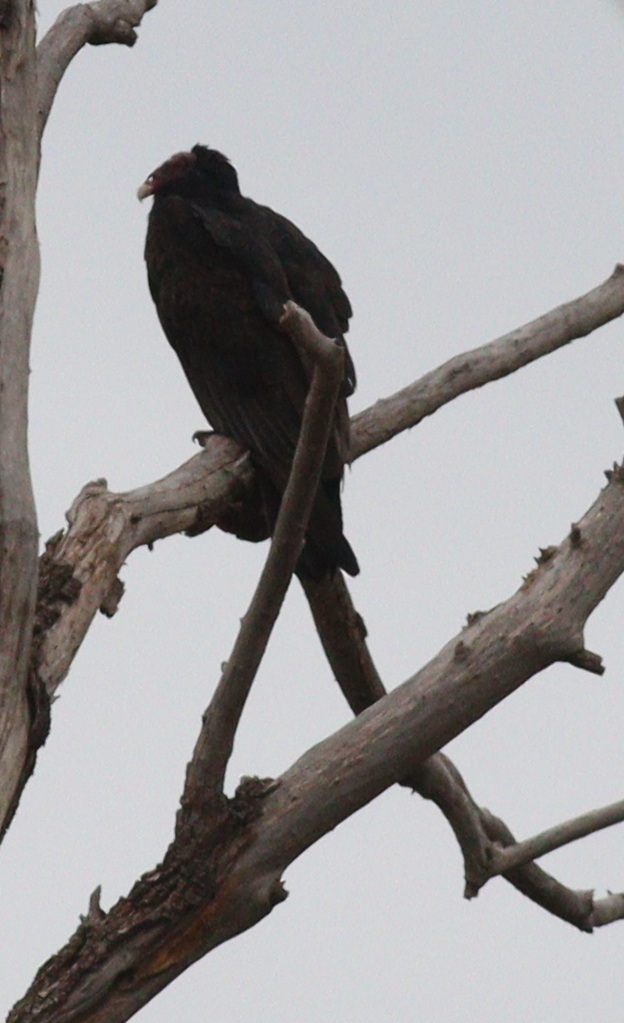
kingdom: Animalia
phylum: Chordata
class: Aves
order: Accipitriformes
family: Cathartidae
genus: Cathartes
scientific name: Cathartes aura
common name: Turkey vulture
